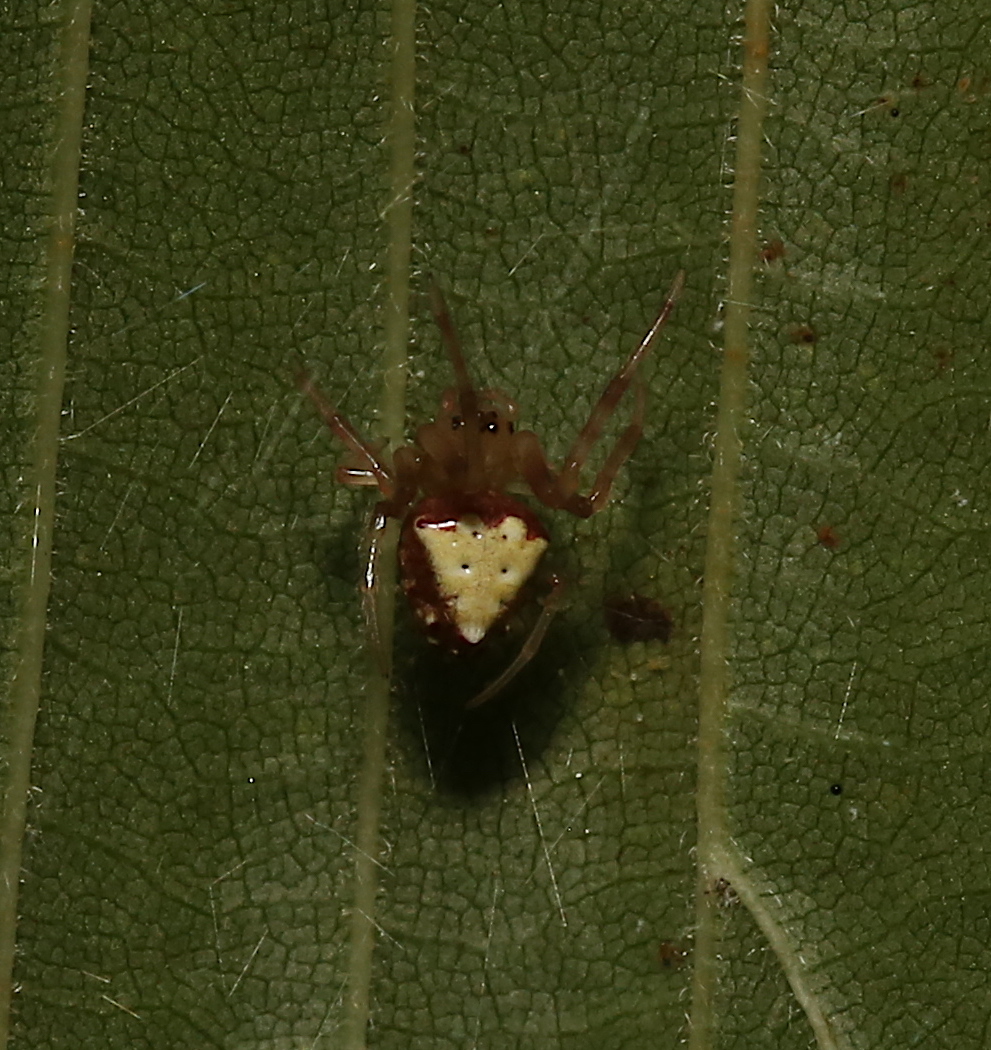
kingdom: Animalia
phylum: Arthropoda
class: Arachnida
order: Araneae
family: Araneidae
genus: Verrucosa
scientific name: Verrucosa arenata
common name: Orb weavers
